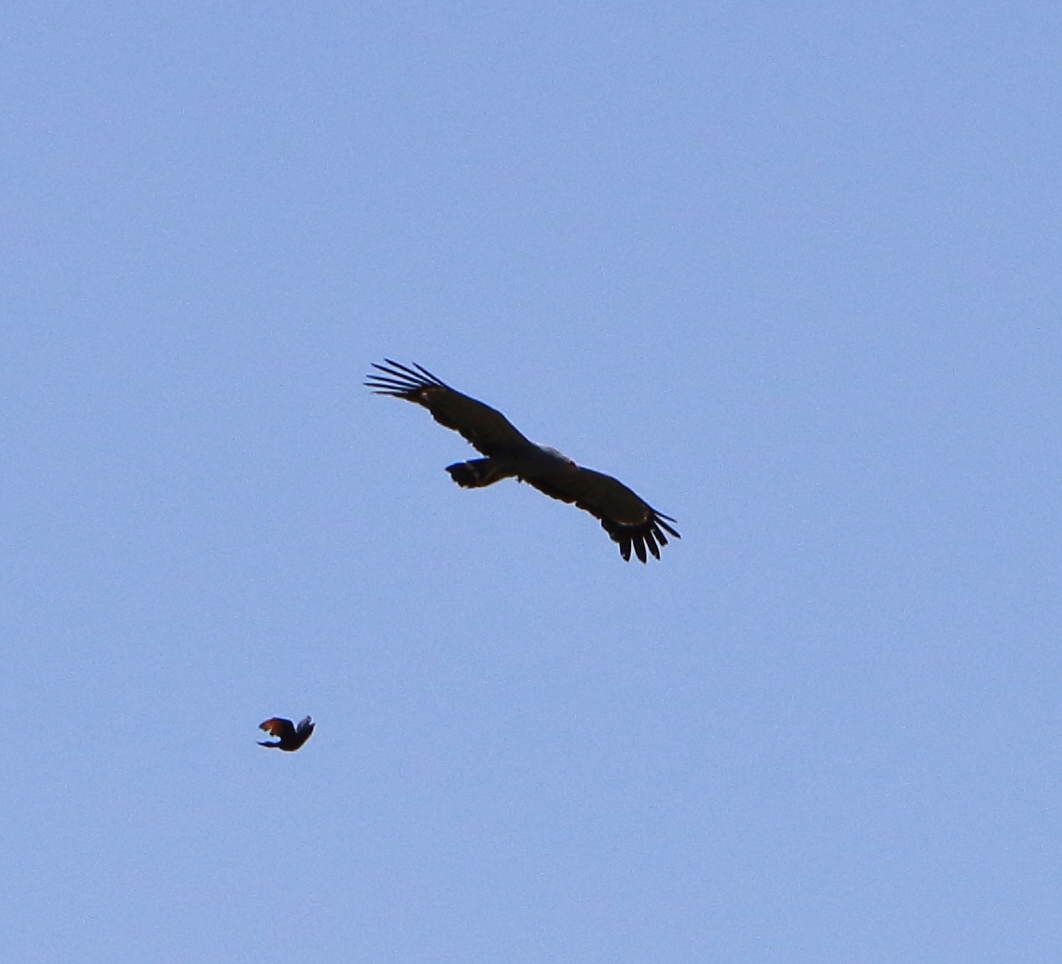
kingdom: Animalia
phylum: Chordata
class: Aves
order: Accipitriformes
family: Accipitridae
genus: Polyboroides
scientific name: Polyboroides typus
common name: African harrier-hawk
